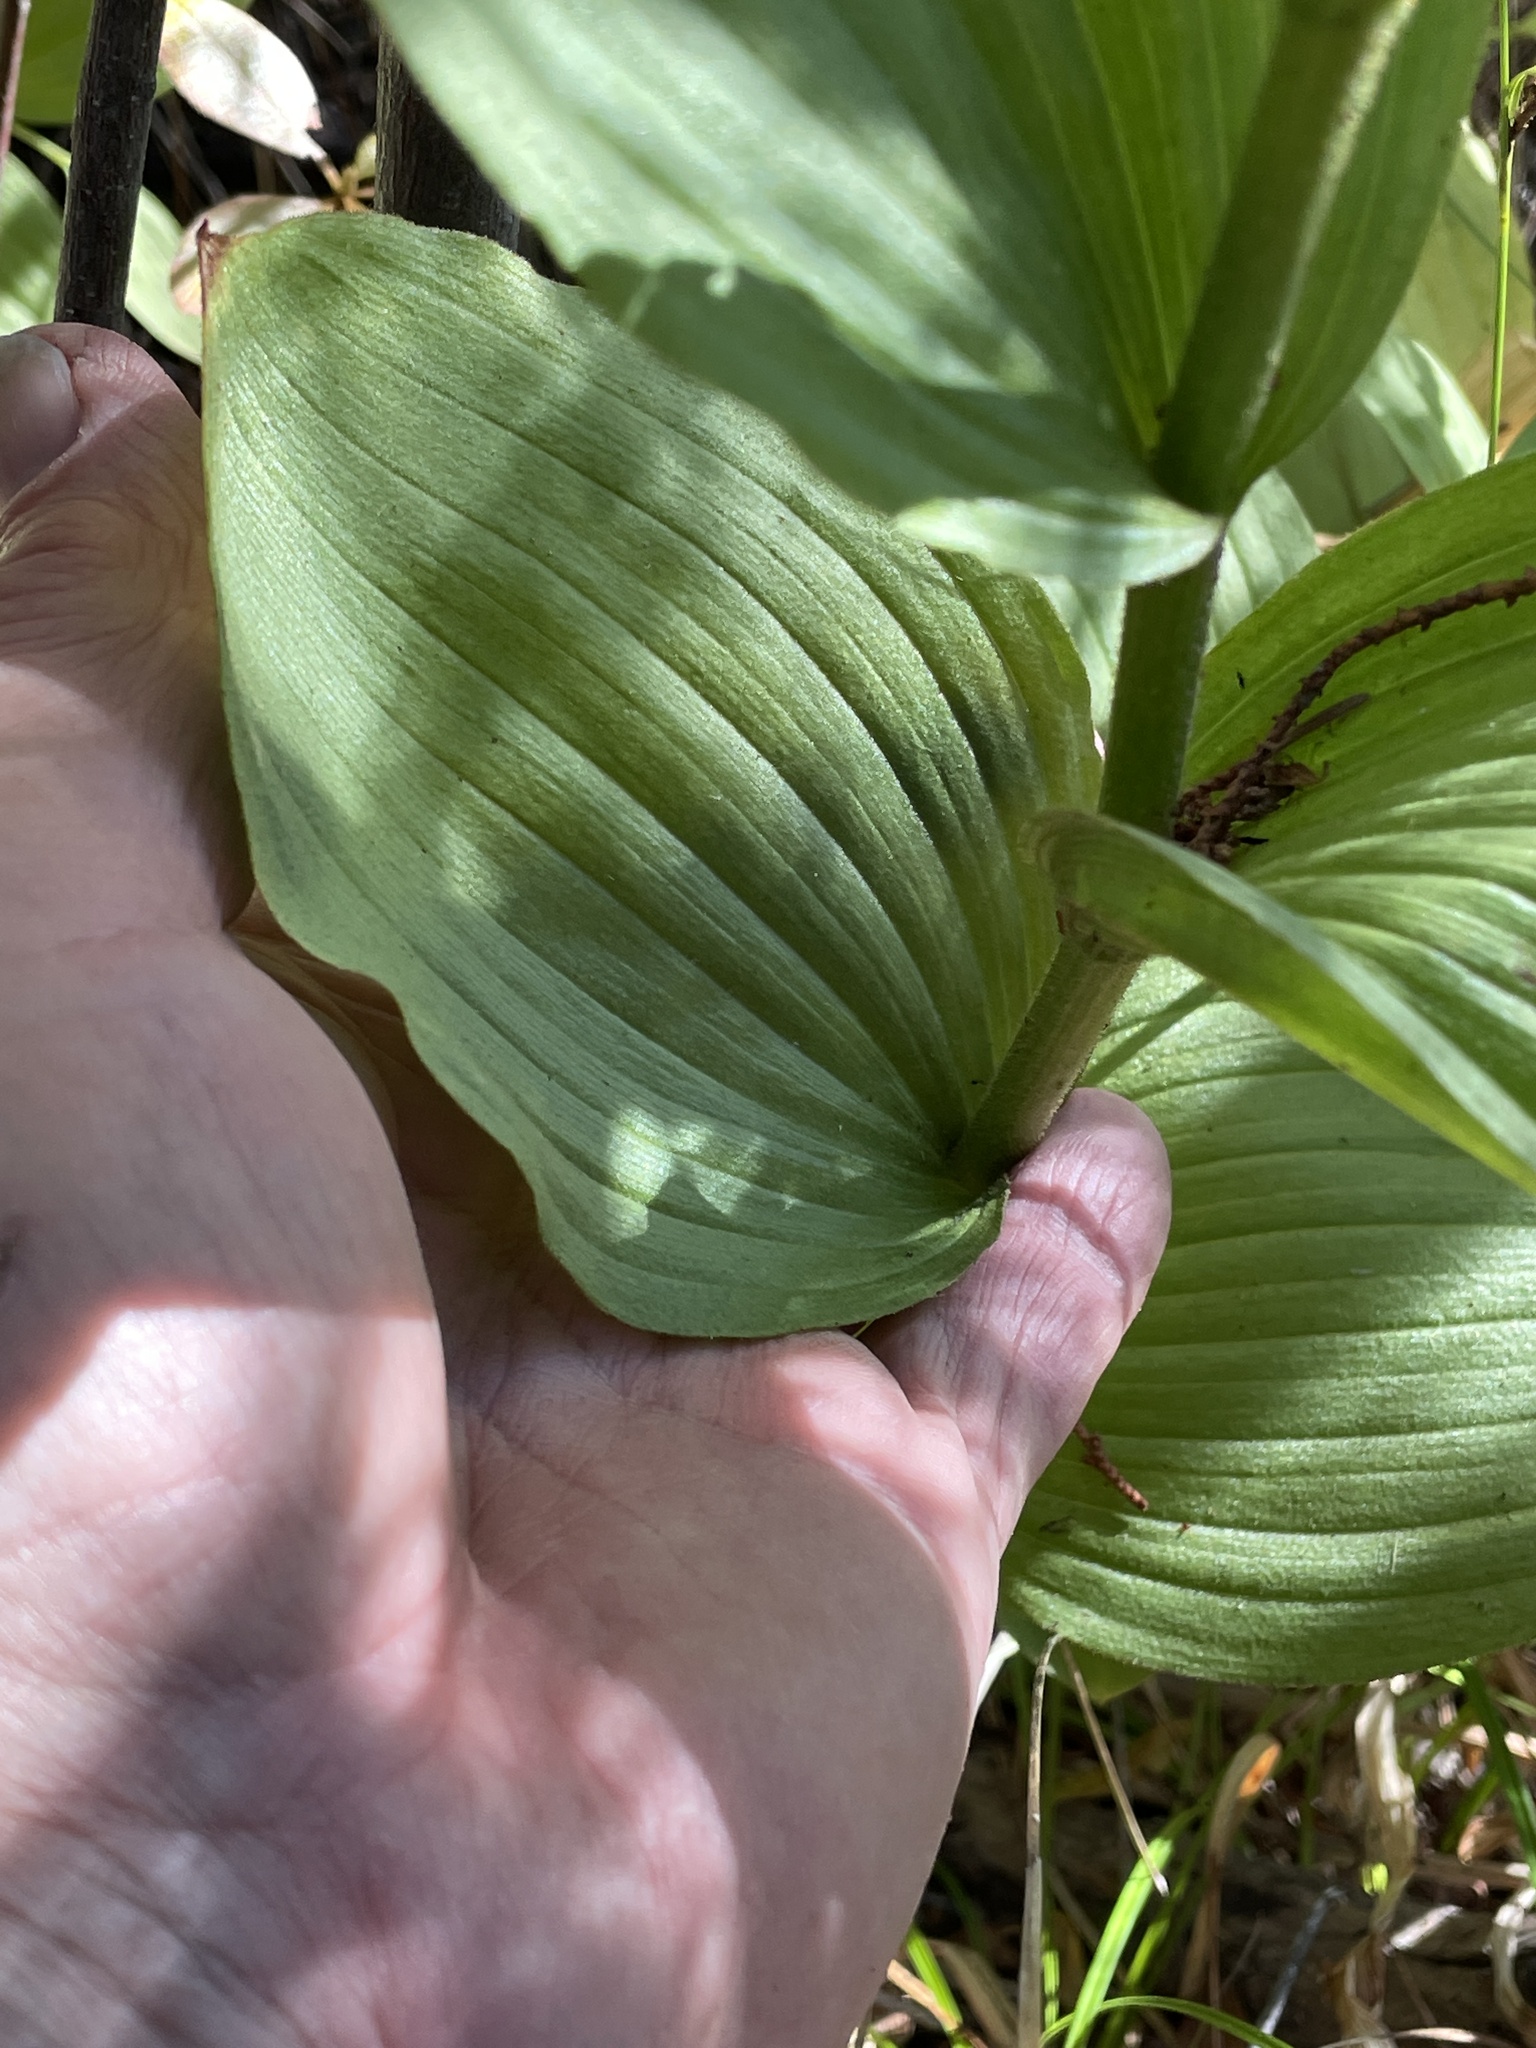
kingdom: Plantae
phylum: Tracheophyta
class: Liliopsida
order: Asparagales
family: Orchidaceae
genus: Cypripedium
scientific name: Cypripedium californicum
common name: California lady's slipper
